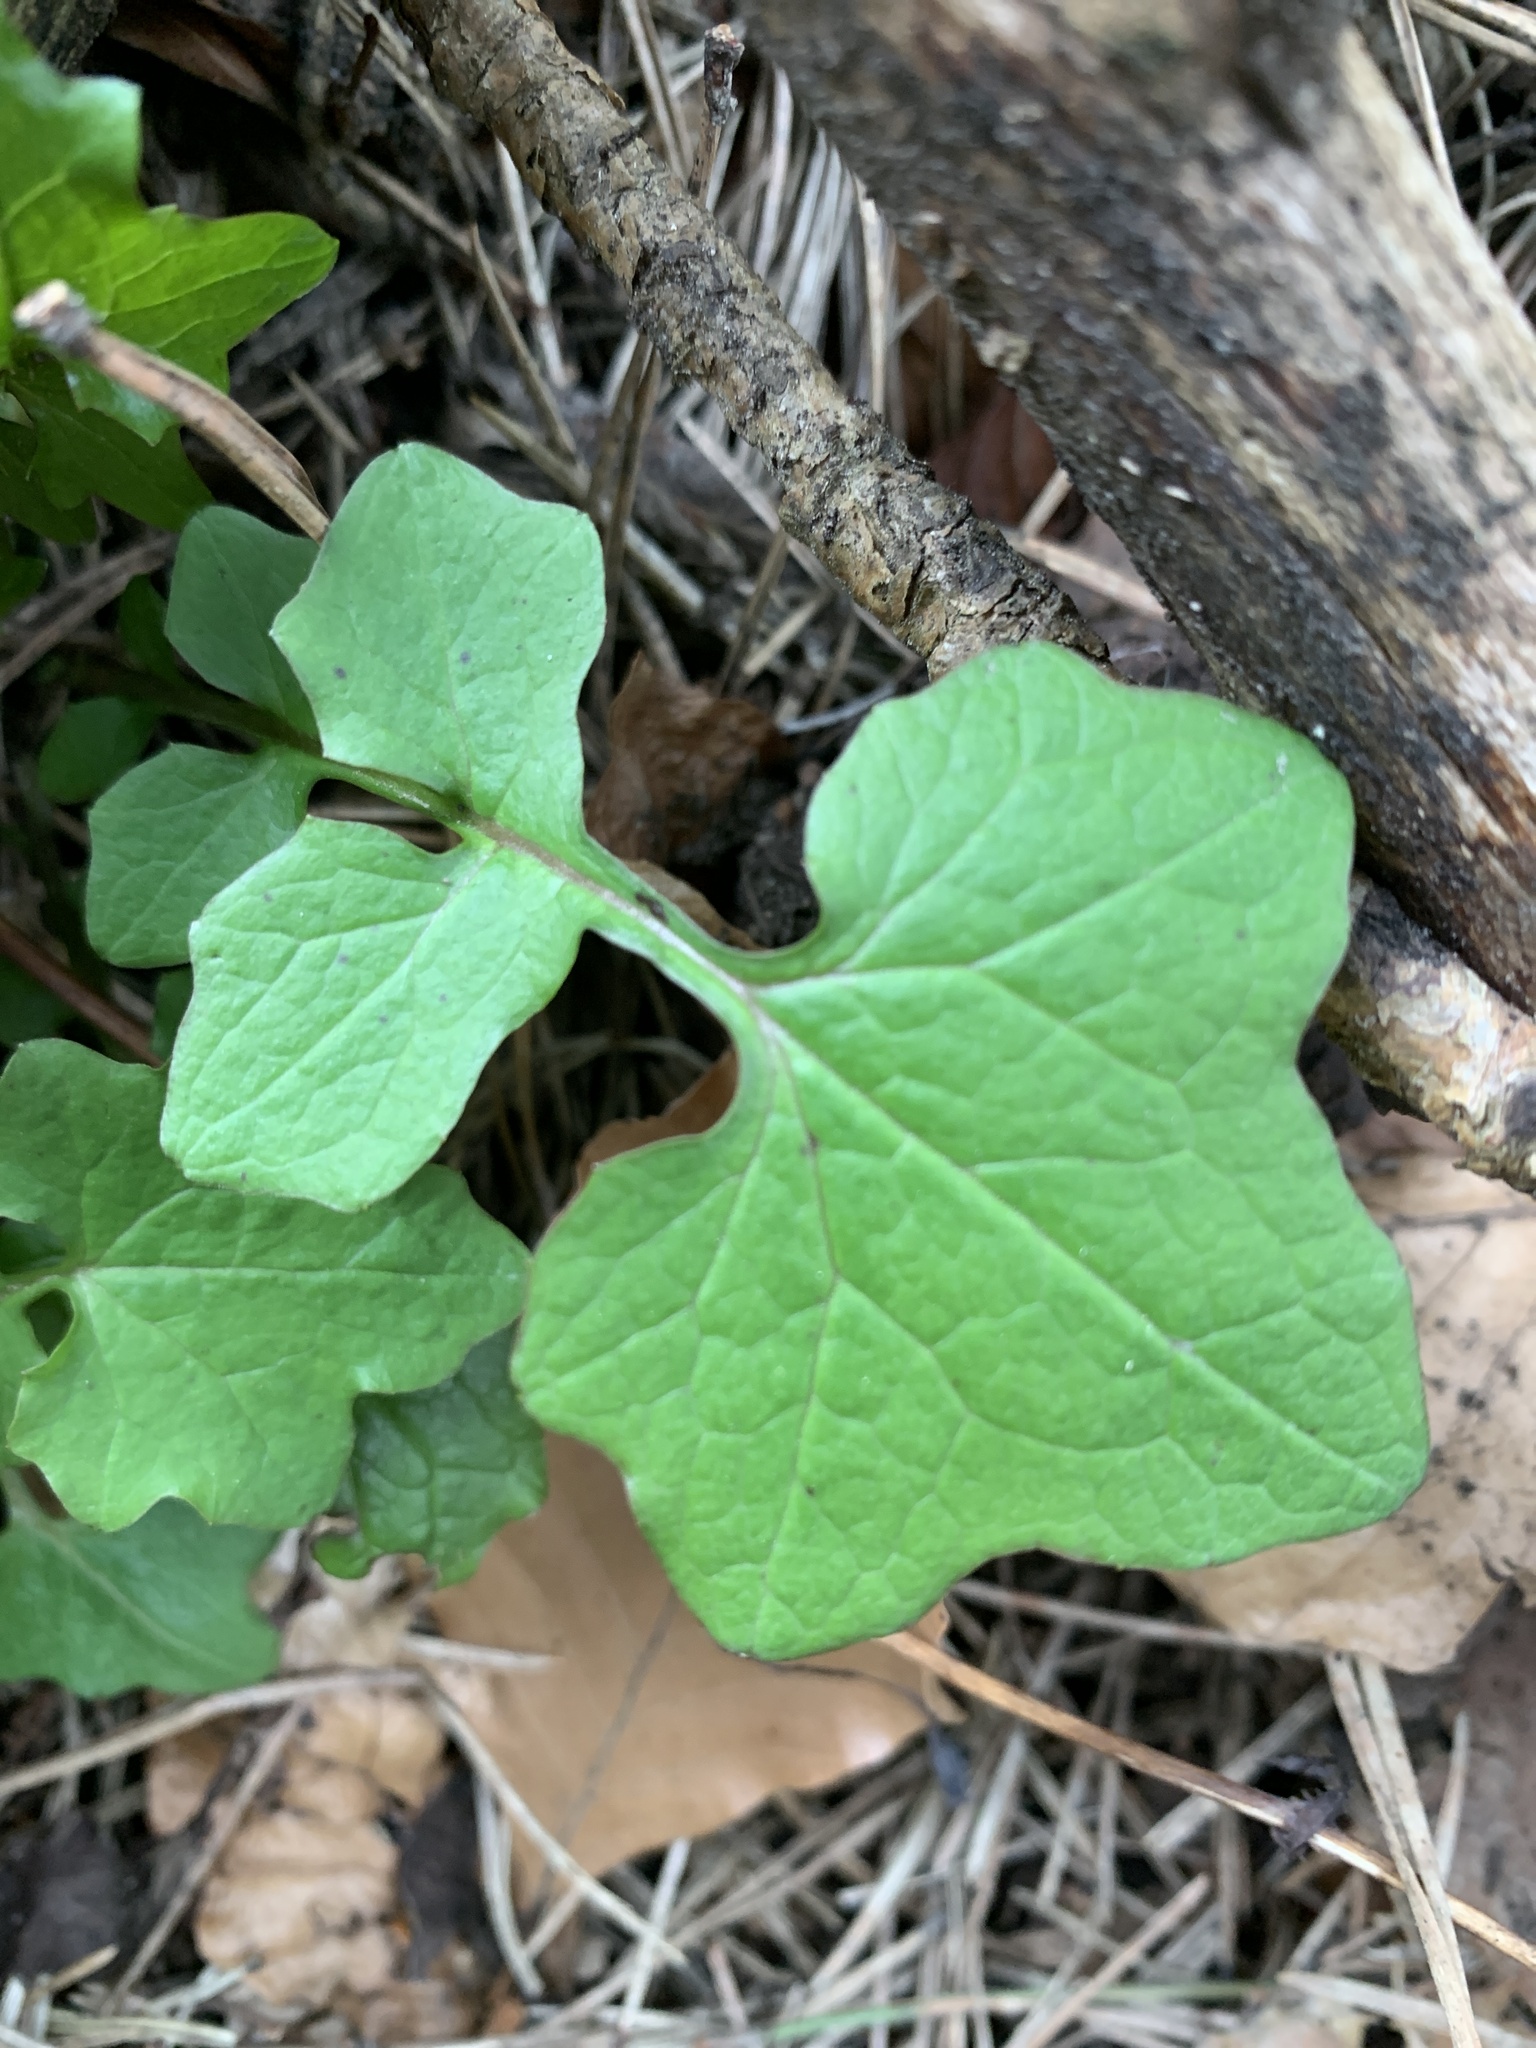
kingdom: Plantae
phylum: Tracheophyta
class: Magnoliopsida
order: Asterales
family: Asteraceae
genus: Mycelis
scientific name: Mycelis muralis
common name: Wall lettuce
